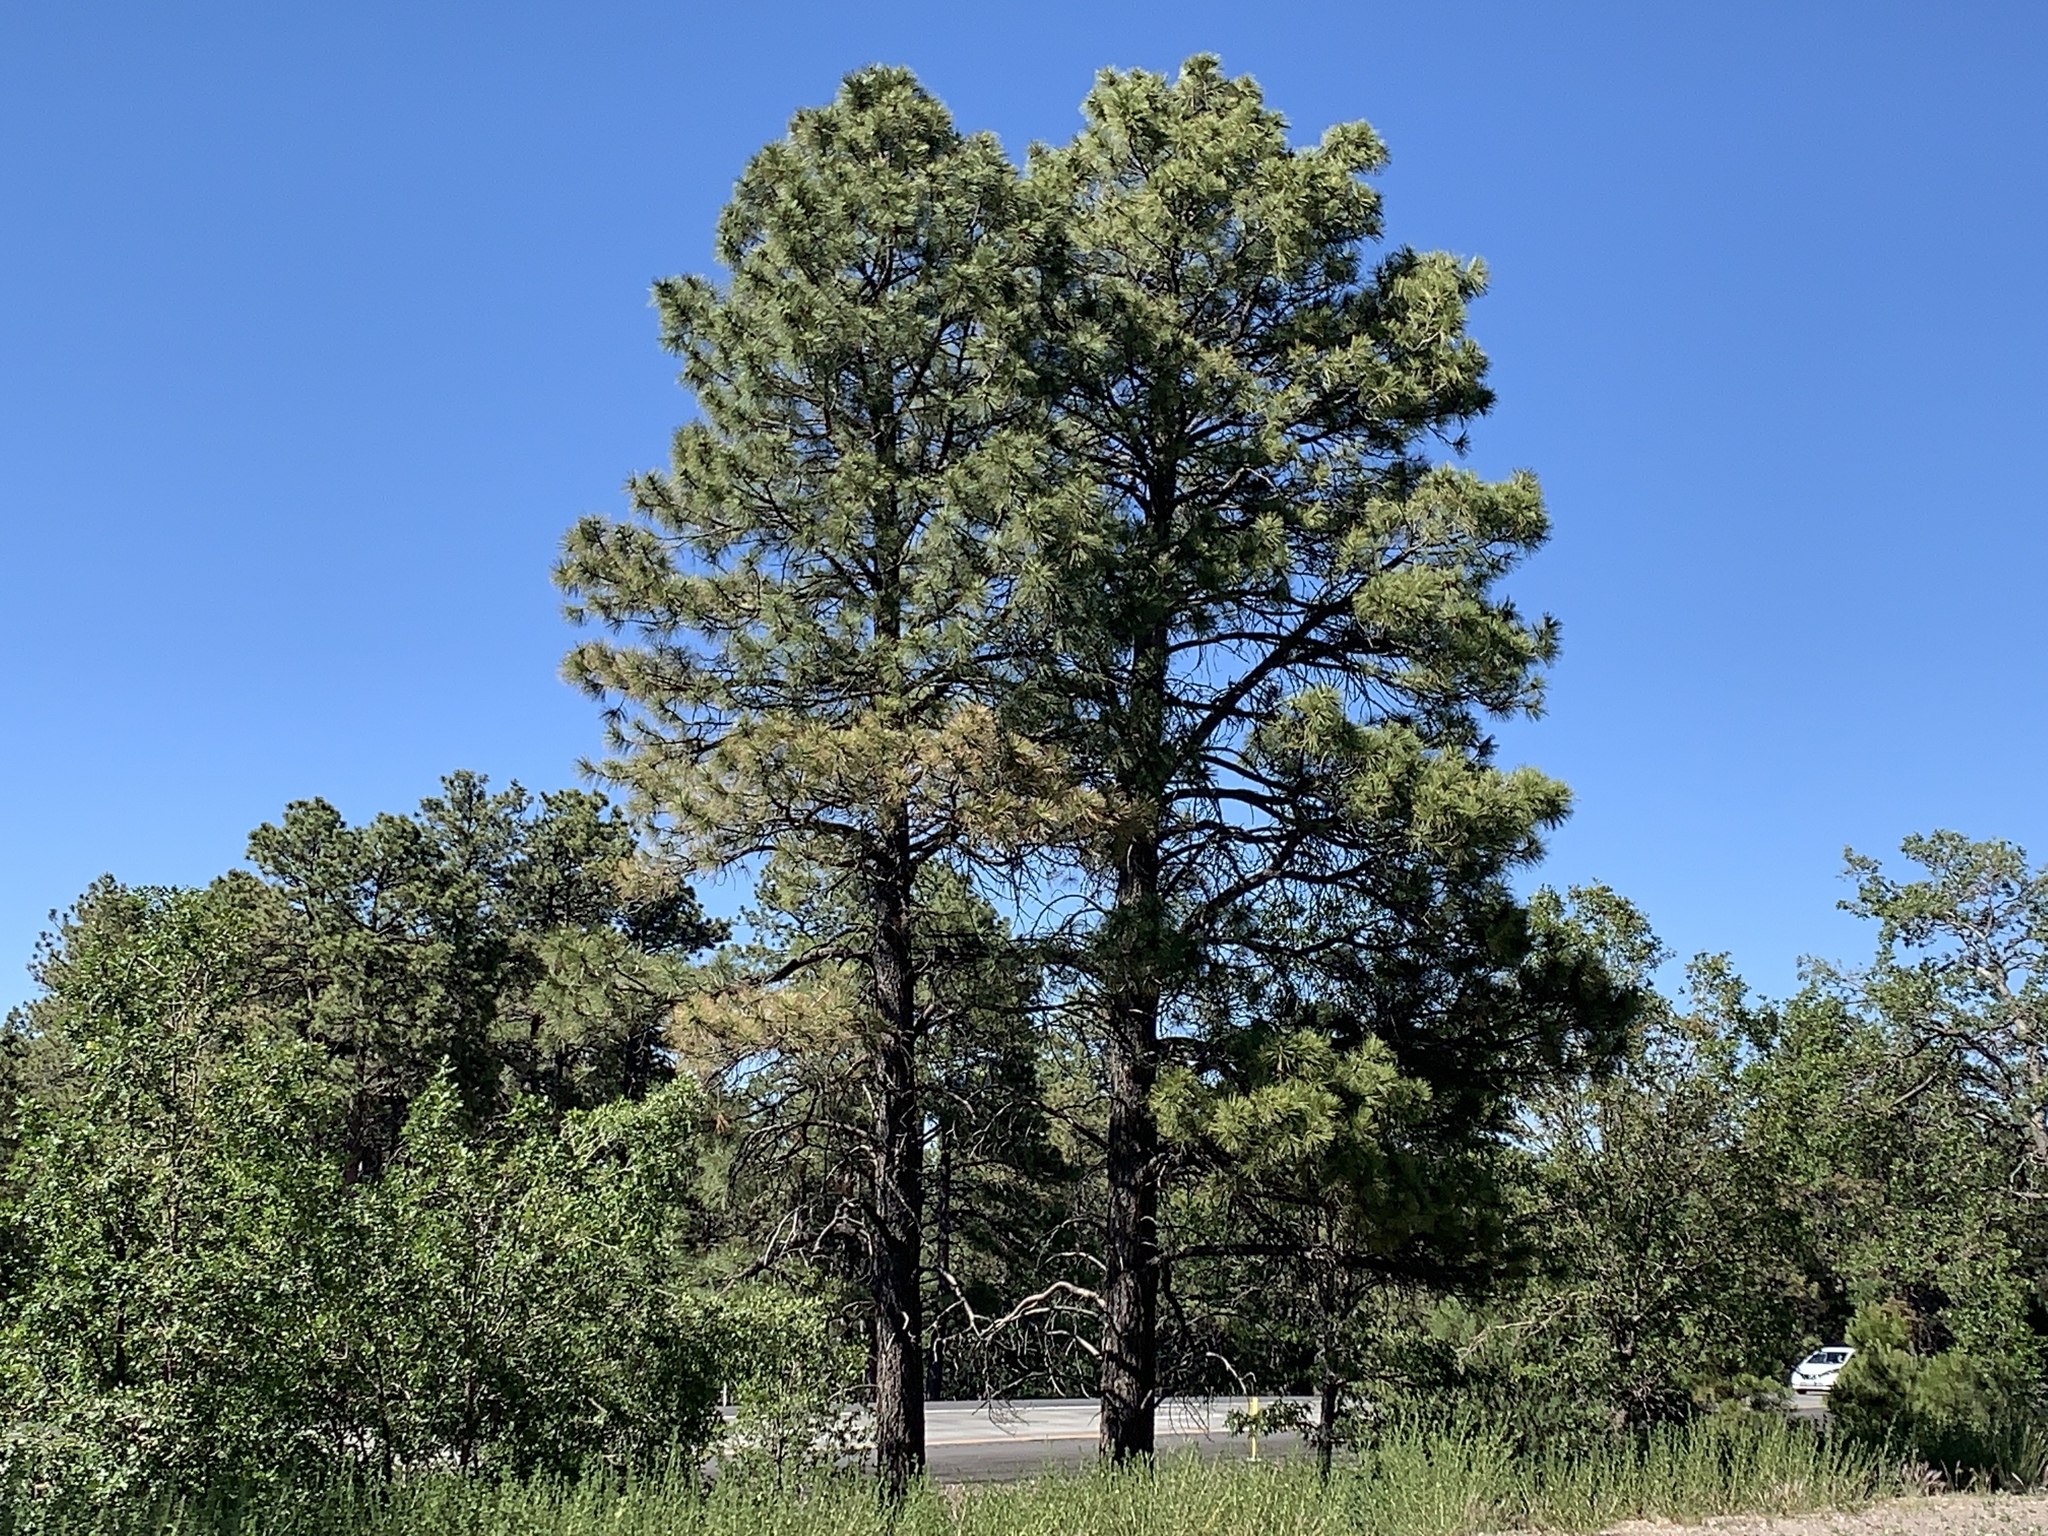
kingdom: Plantae
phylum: Tracheophyta
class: Pinopsida
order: Pinales
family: Pinaceae
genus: Pinus
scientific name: Pinus ponderosa
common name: Western yellow-pine
